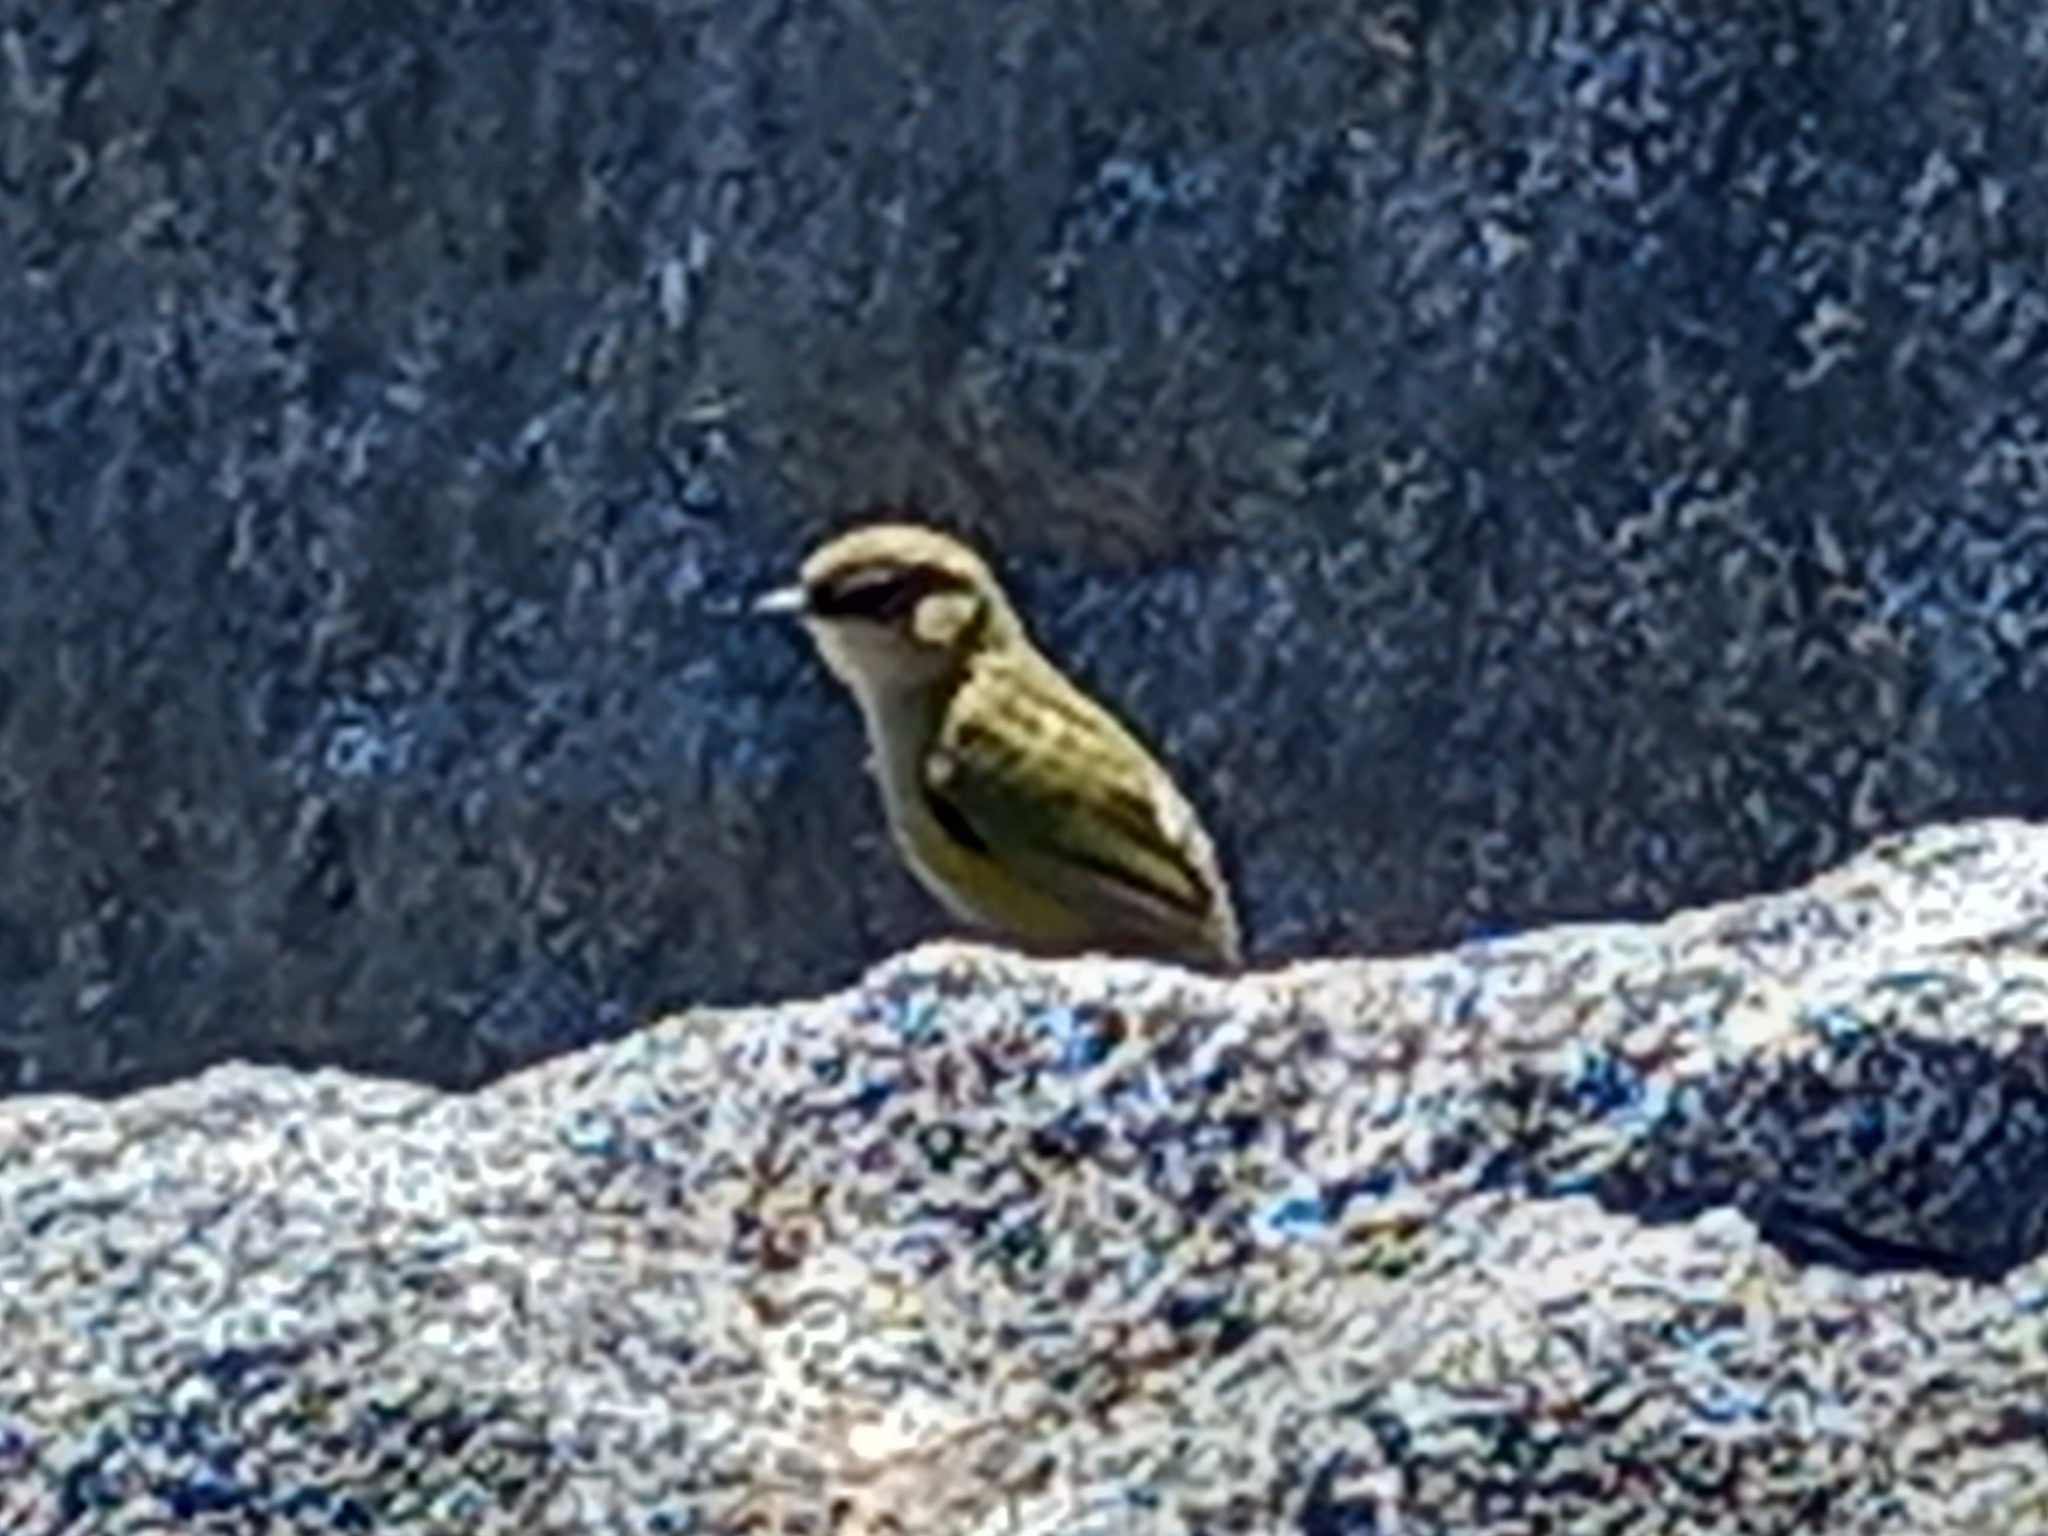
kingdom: Animalia
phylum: Chordata
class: Aves
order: Passeriformes
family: Acanthisittidae
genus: Xenicus
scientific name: Xenicus gilviventris
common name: New zealand rockwren
